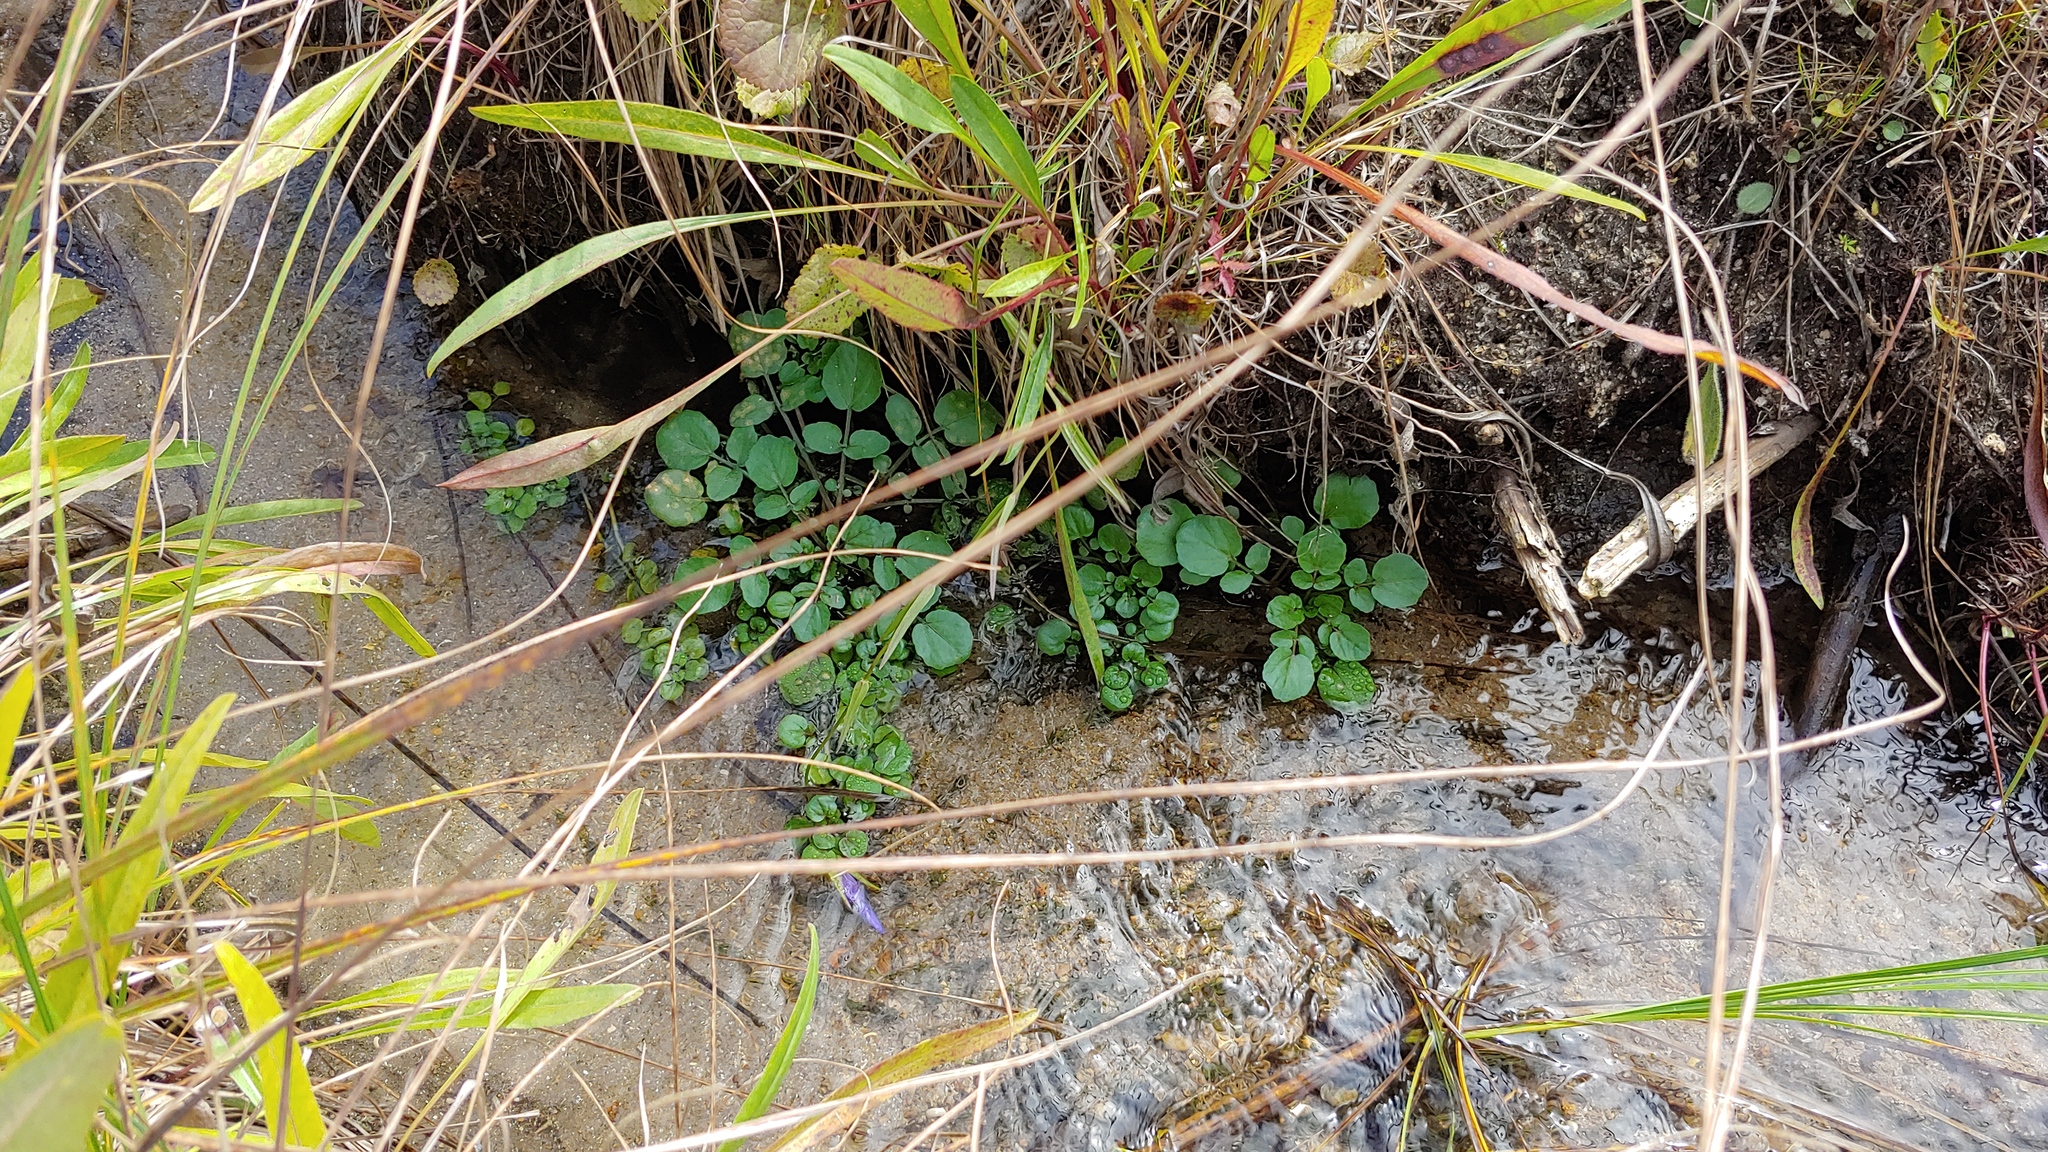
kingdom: Plantae
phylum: Tracheophyta
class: Magnoliopsida
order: Brassicales
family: Brassicaceae
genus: Nasturtium
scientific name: Nasturtium officinale
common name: Watercress
